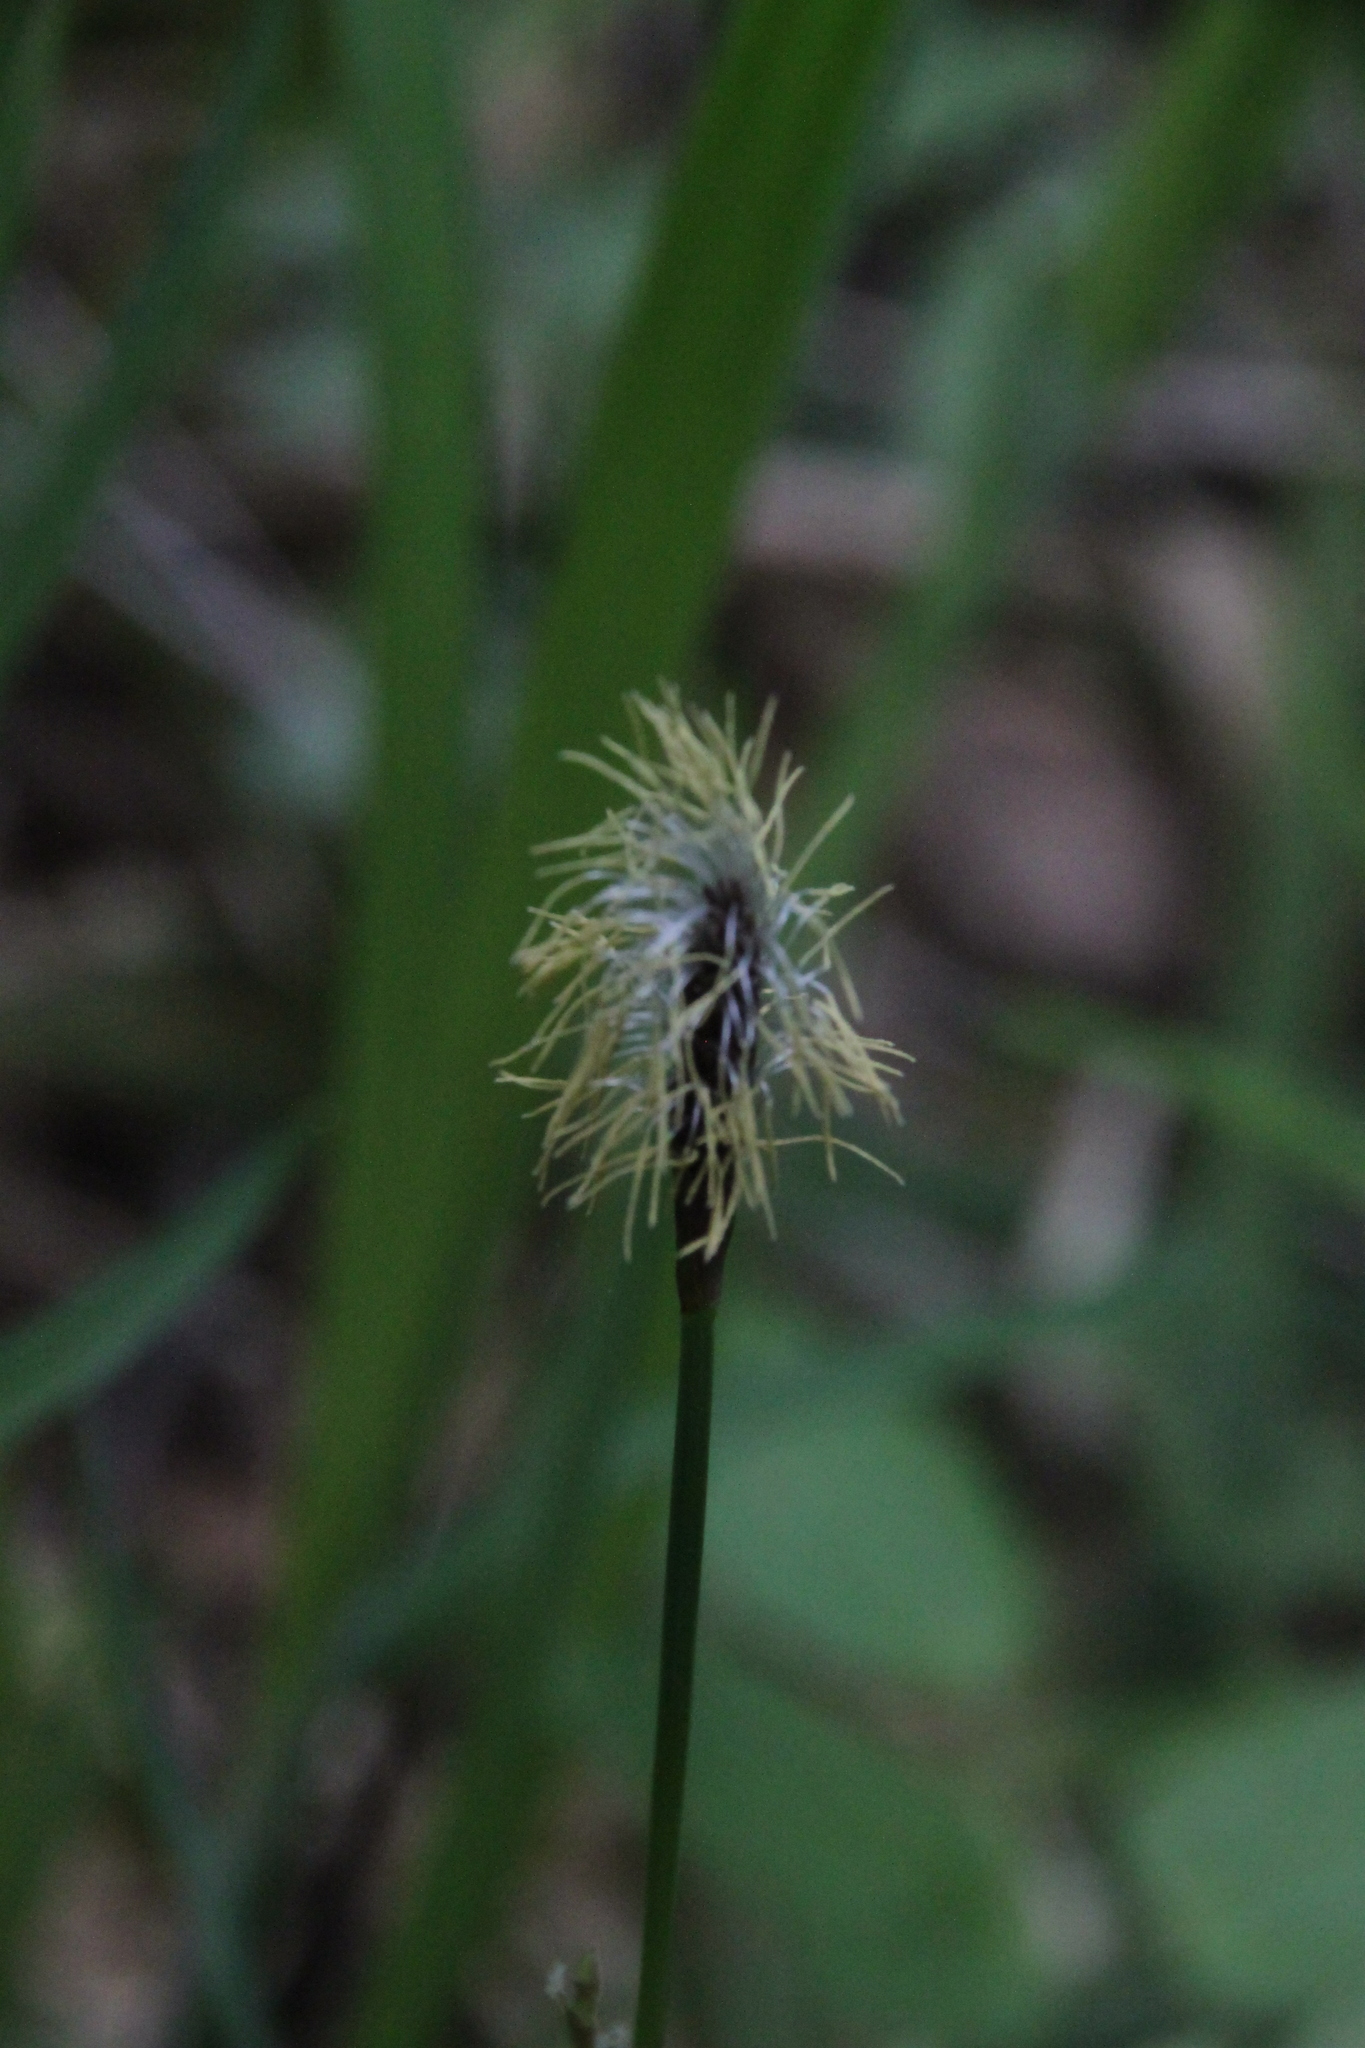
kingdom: Plantae
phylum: Tracheophyta
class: Liliopsida
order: Poales
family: Cyperaceae
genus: Carex
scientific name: Carex pilosa
